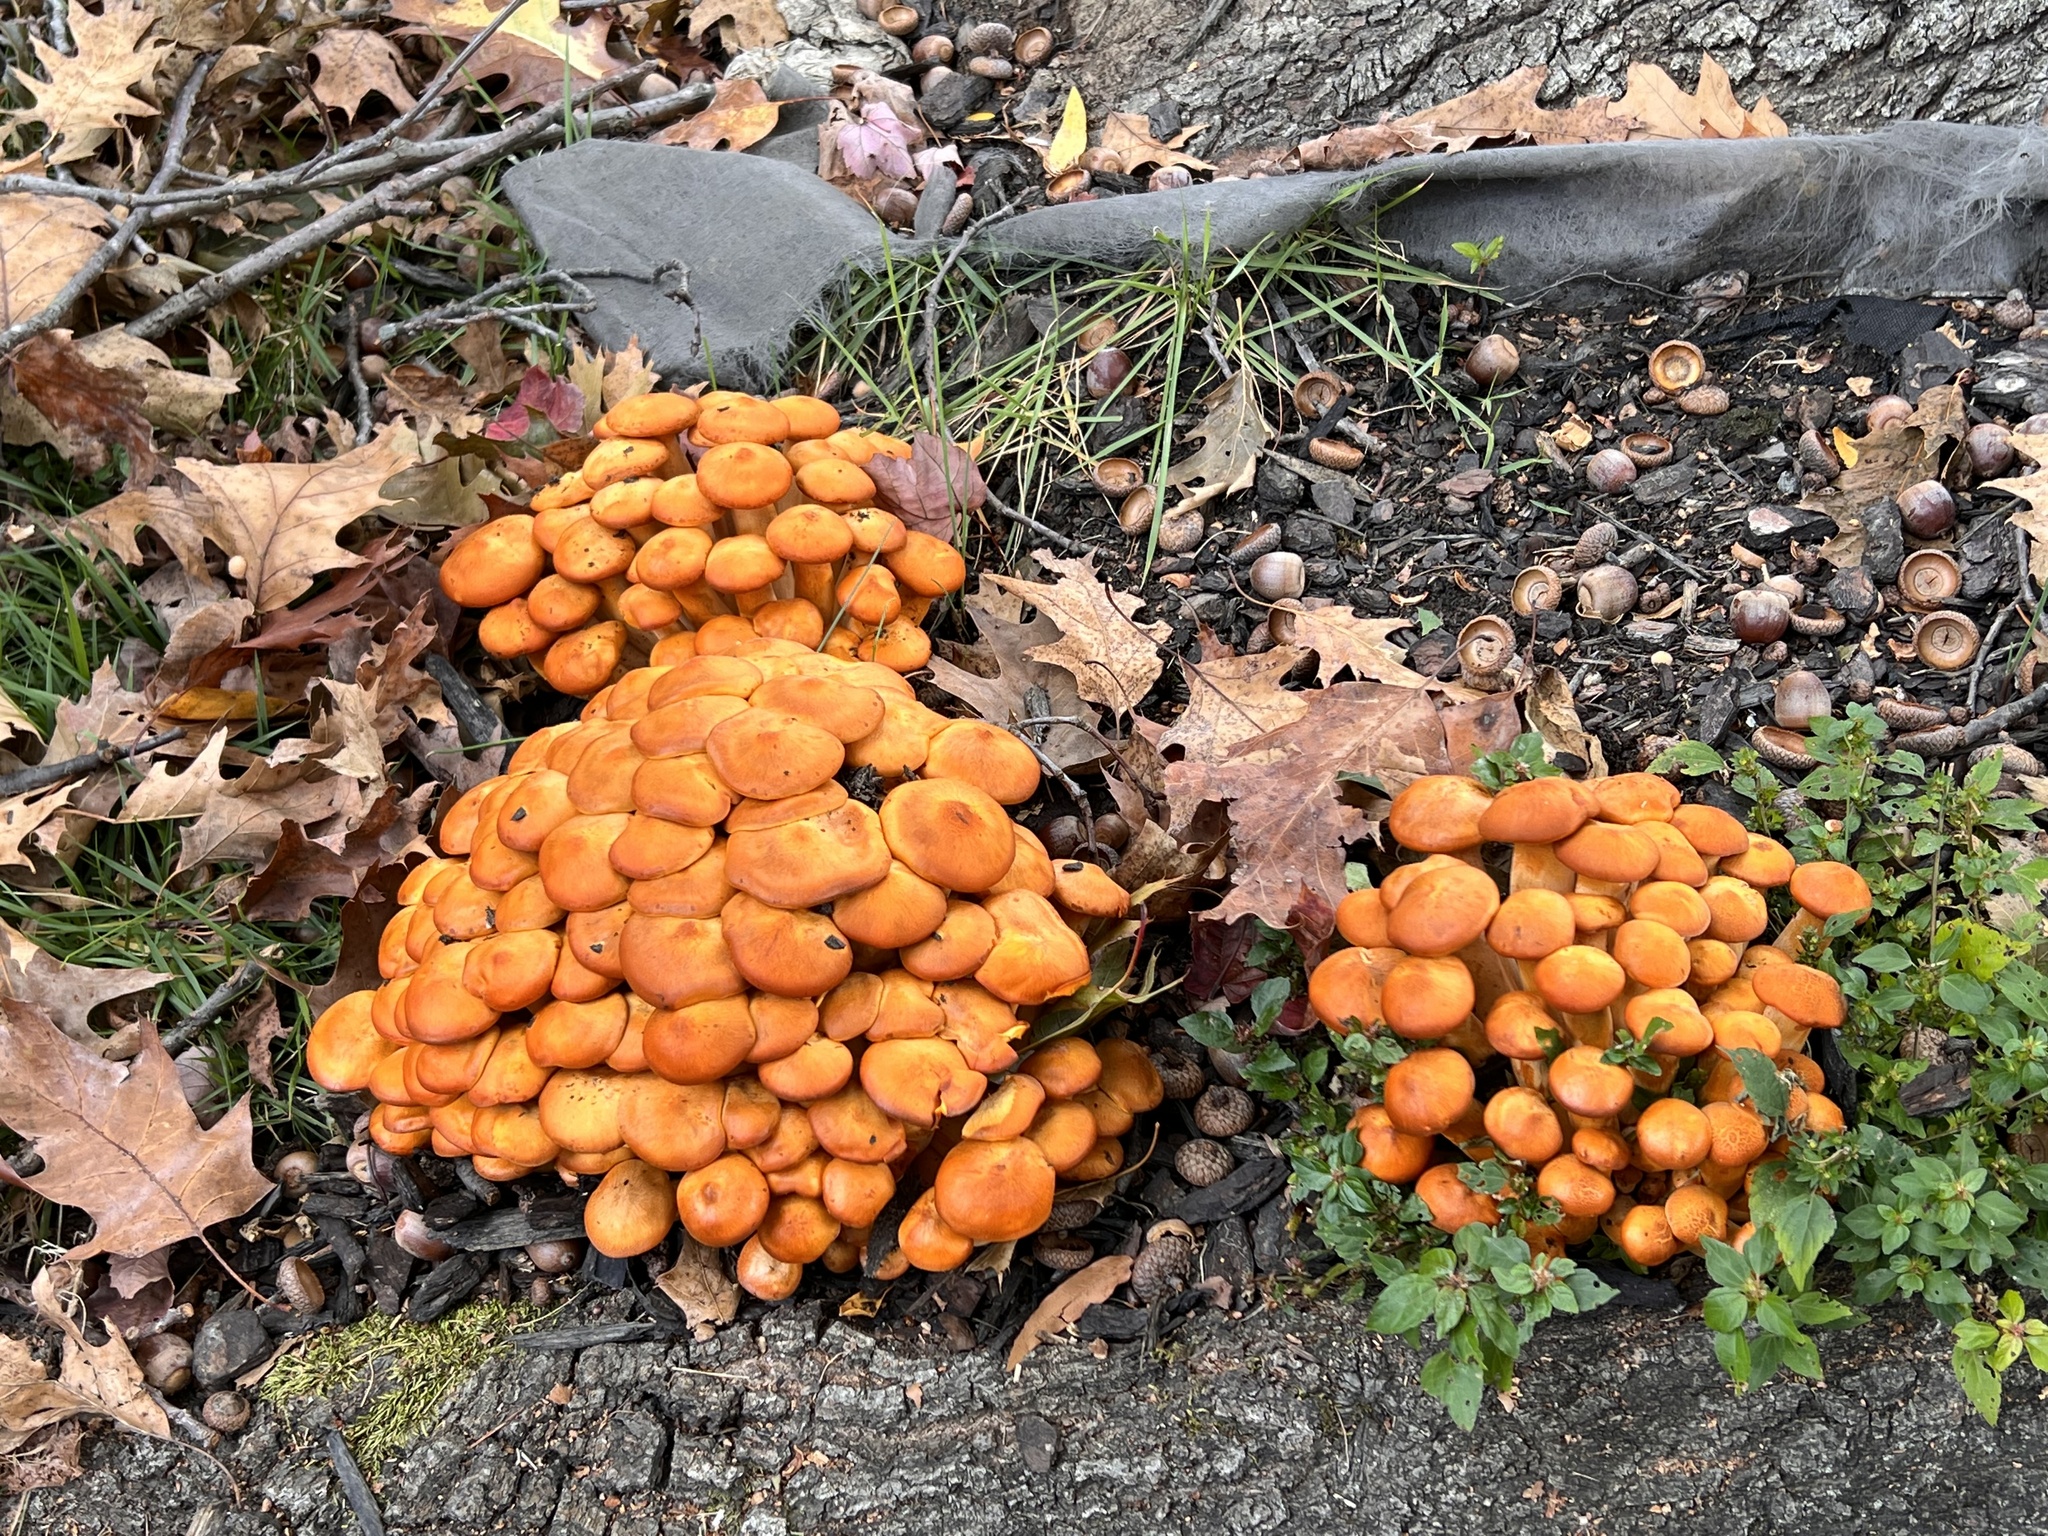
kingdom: Fungi
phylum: Basidiomycota
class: Agaricomycetes
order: Agaricales
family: Omphalotaceae
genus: Omphalotus
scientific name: Omphalotus illudens
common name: Jack o lantern
